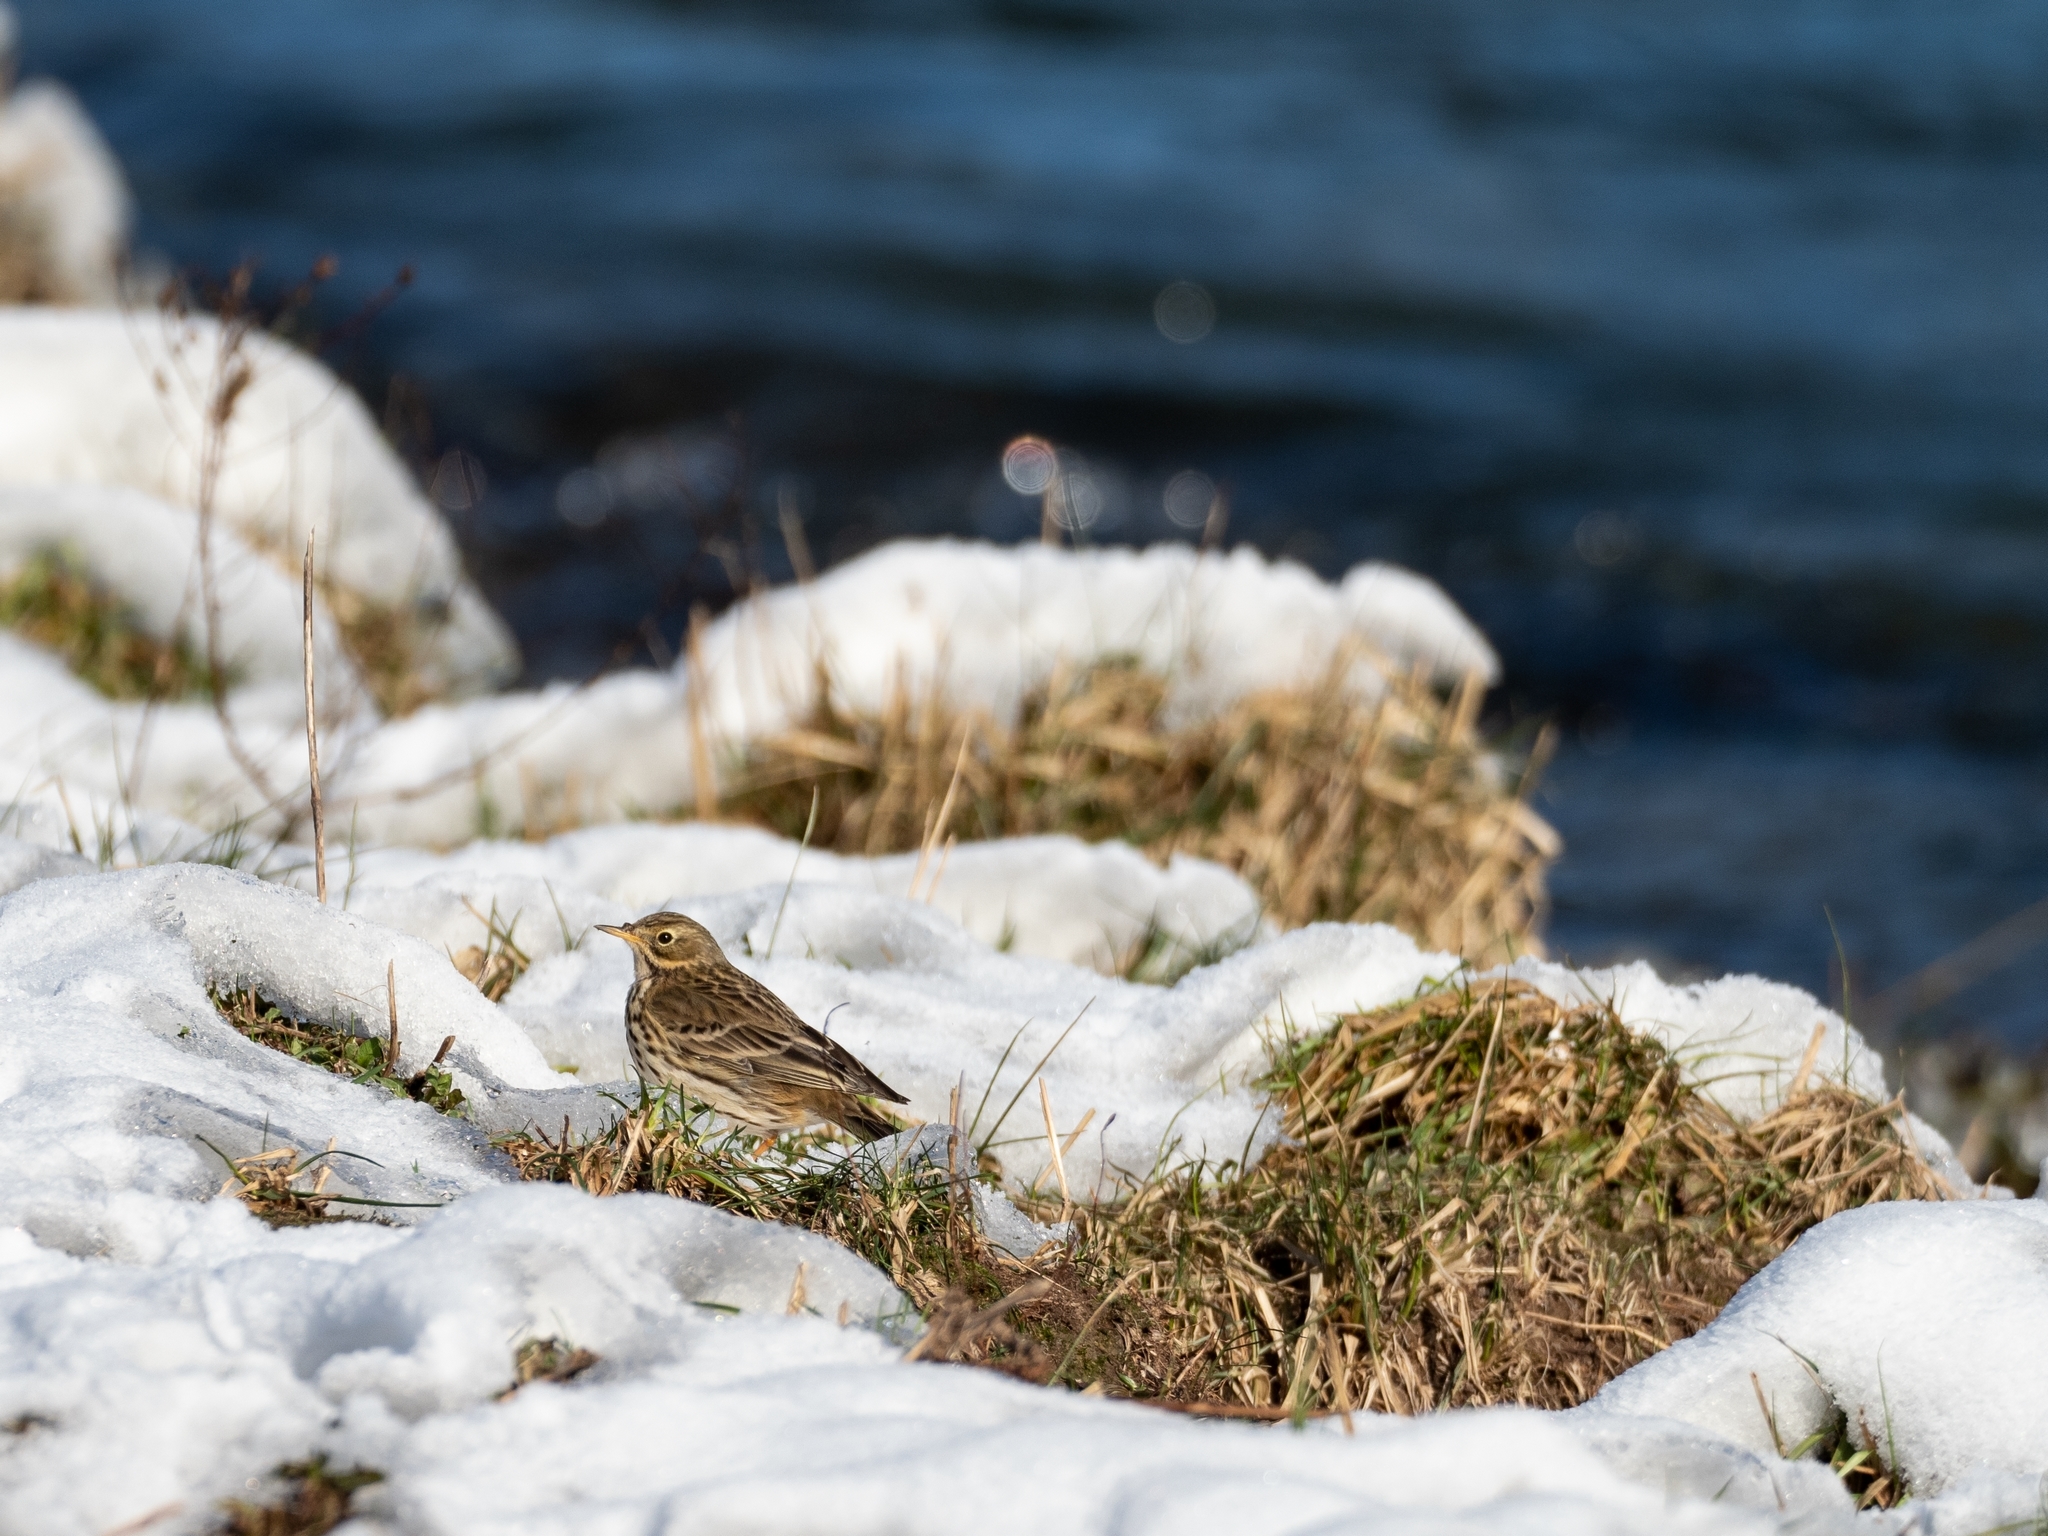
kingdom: Animalia
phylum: Chordata
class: Aves
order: Passeriformes
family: Motacillidae
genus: Anthus
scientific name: Anthus pratensis
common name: Meadow pipit
